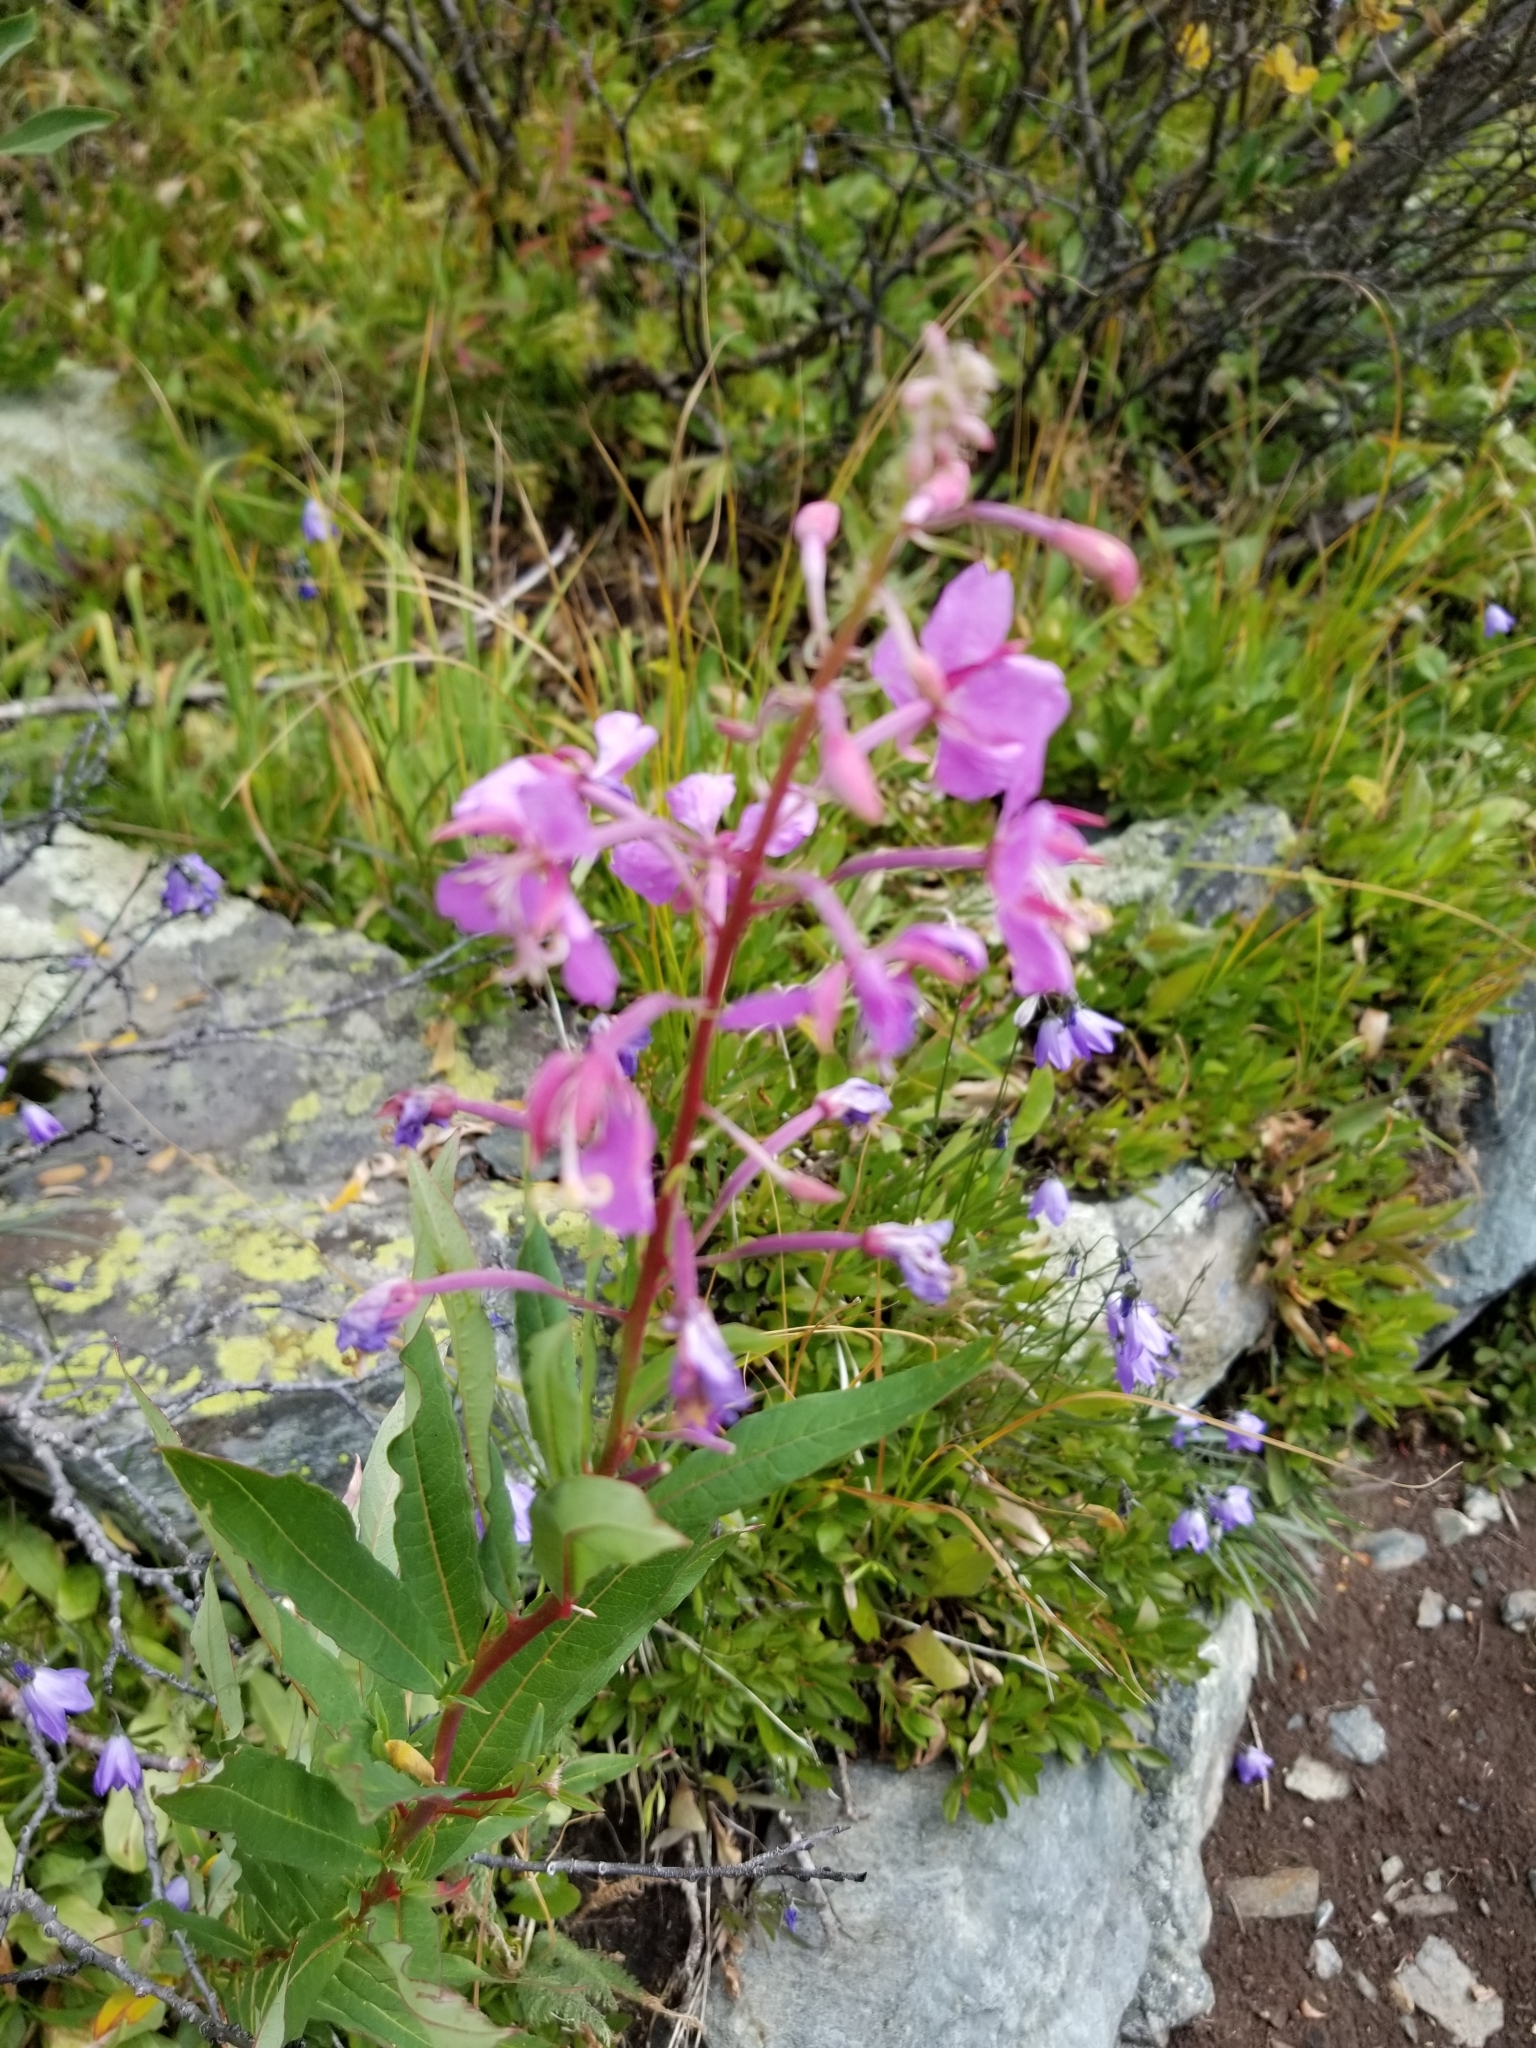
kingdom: Plantae
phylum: Tracheophyta
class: Magnoliopsida
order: Myrtales
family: Onagraceae
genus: Chamaenerion
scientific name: Chamaenerion angustifolium
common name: Fireweed
